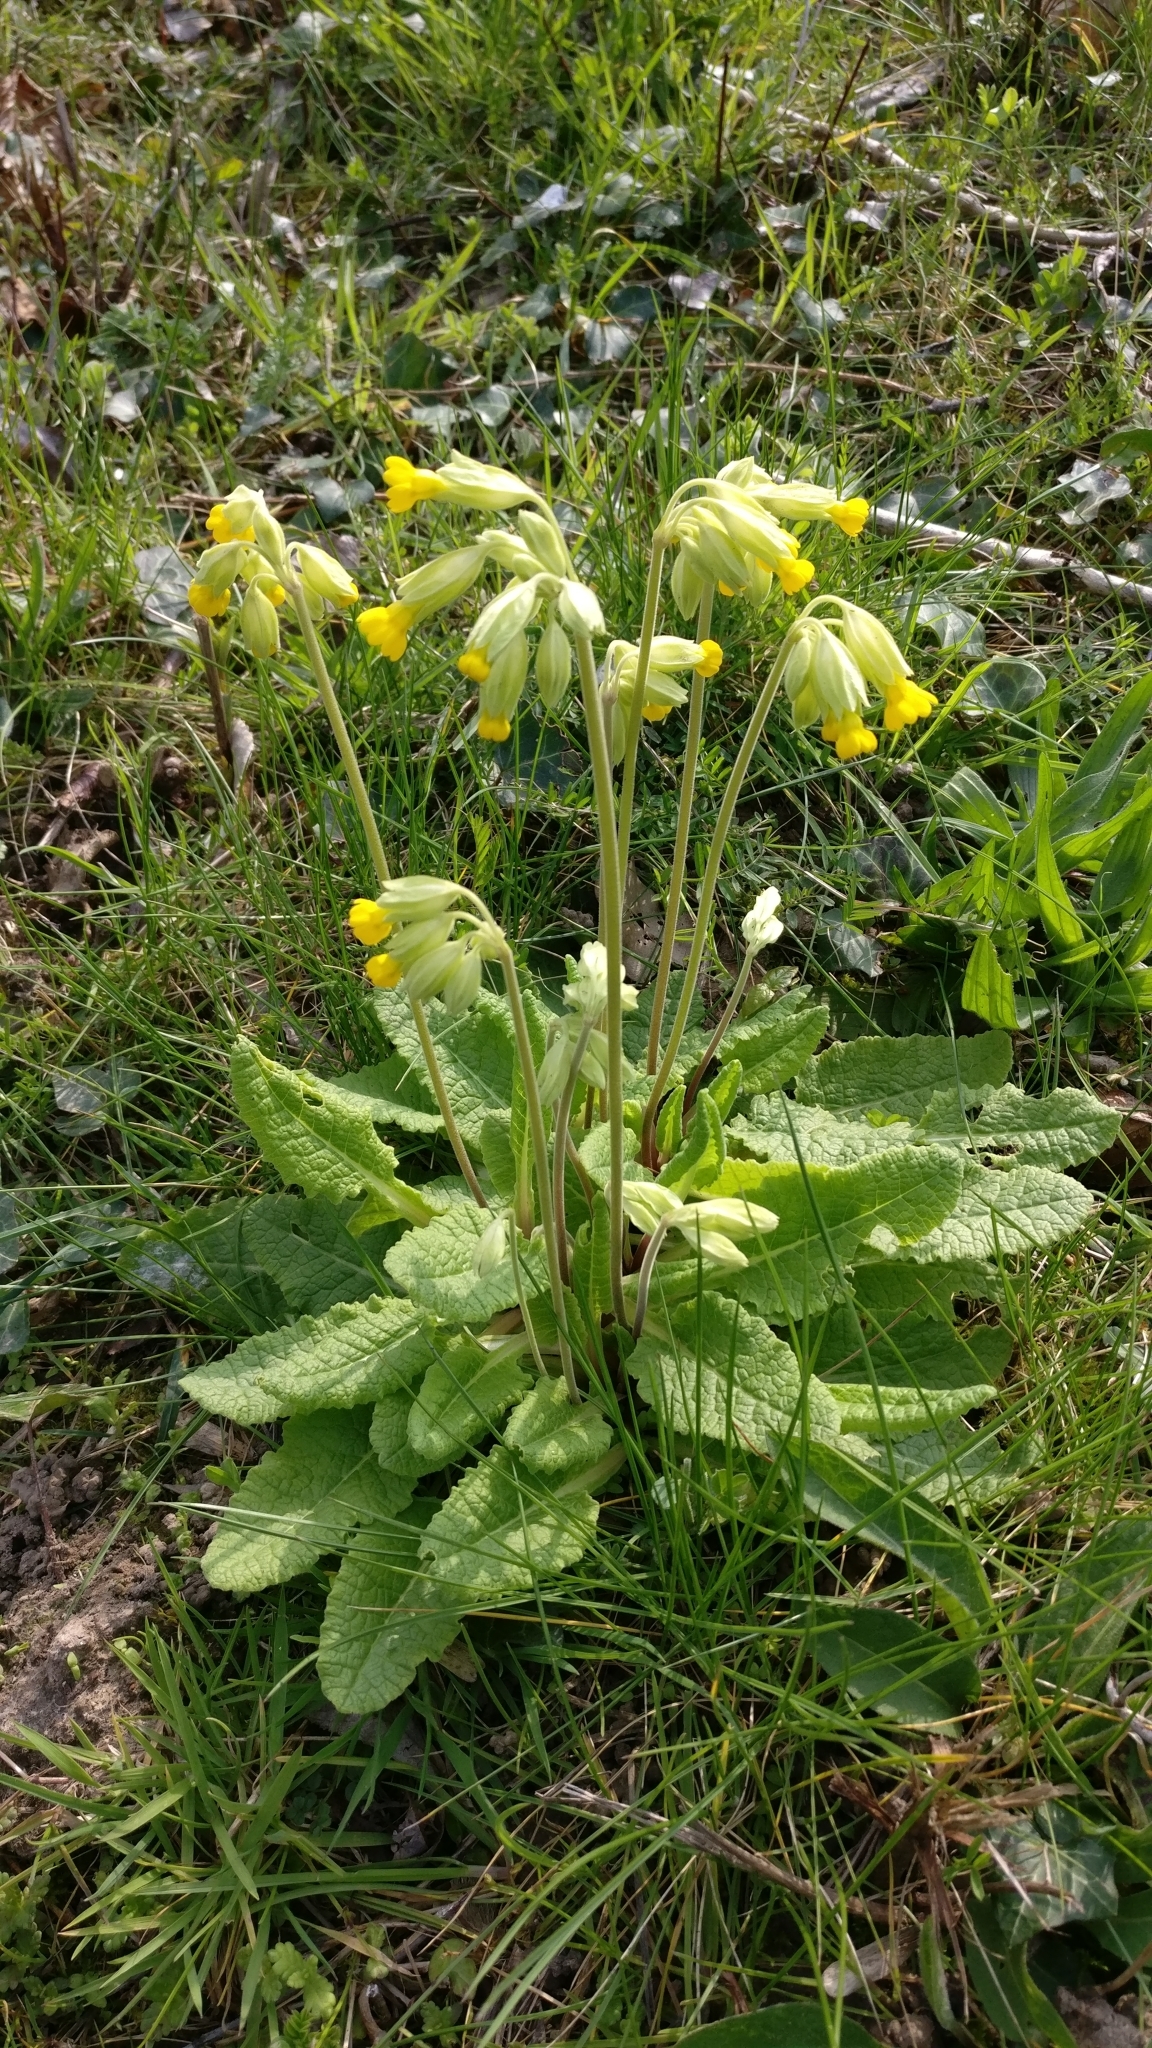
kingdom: Plantae
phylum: Tracheophyta
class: Magnoliopsida
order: Ericales
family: Primulaceae
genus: Primula
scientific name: Primula veris
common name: Cowslip
